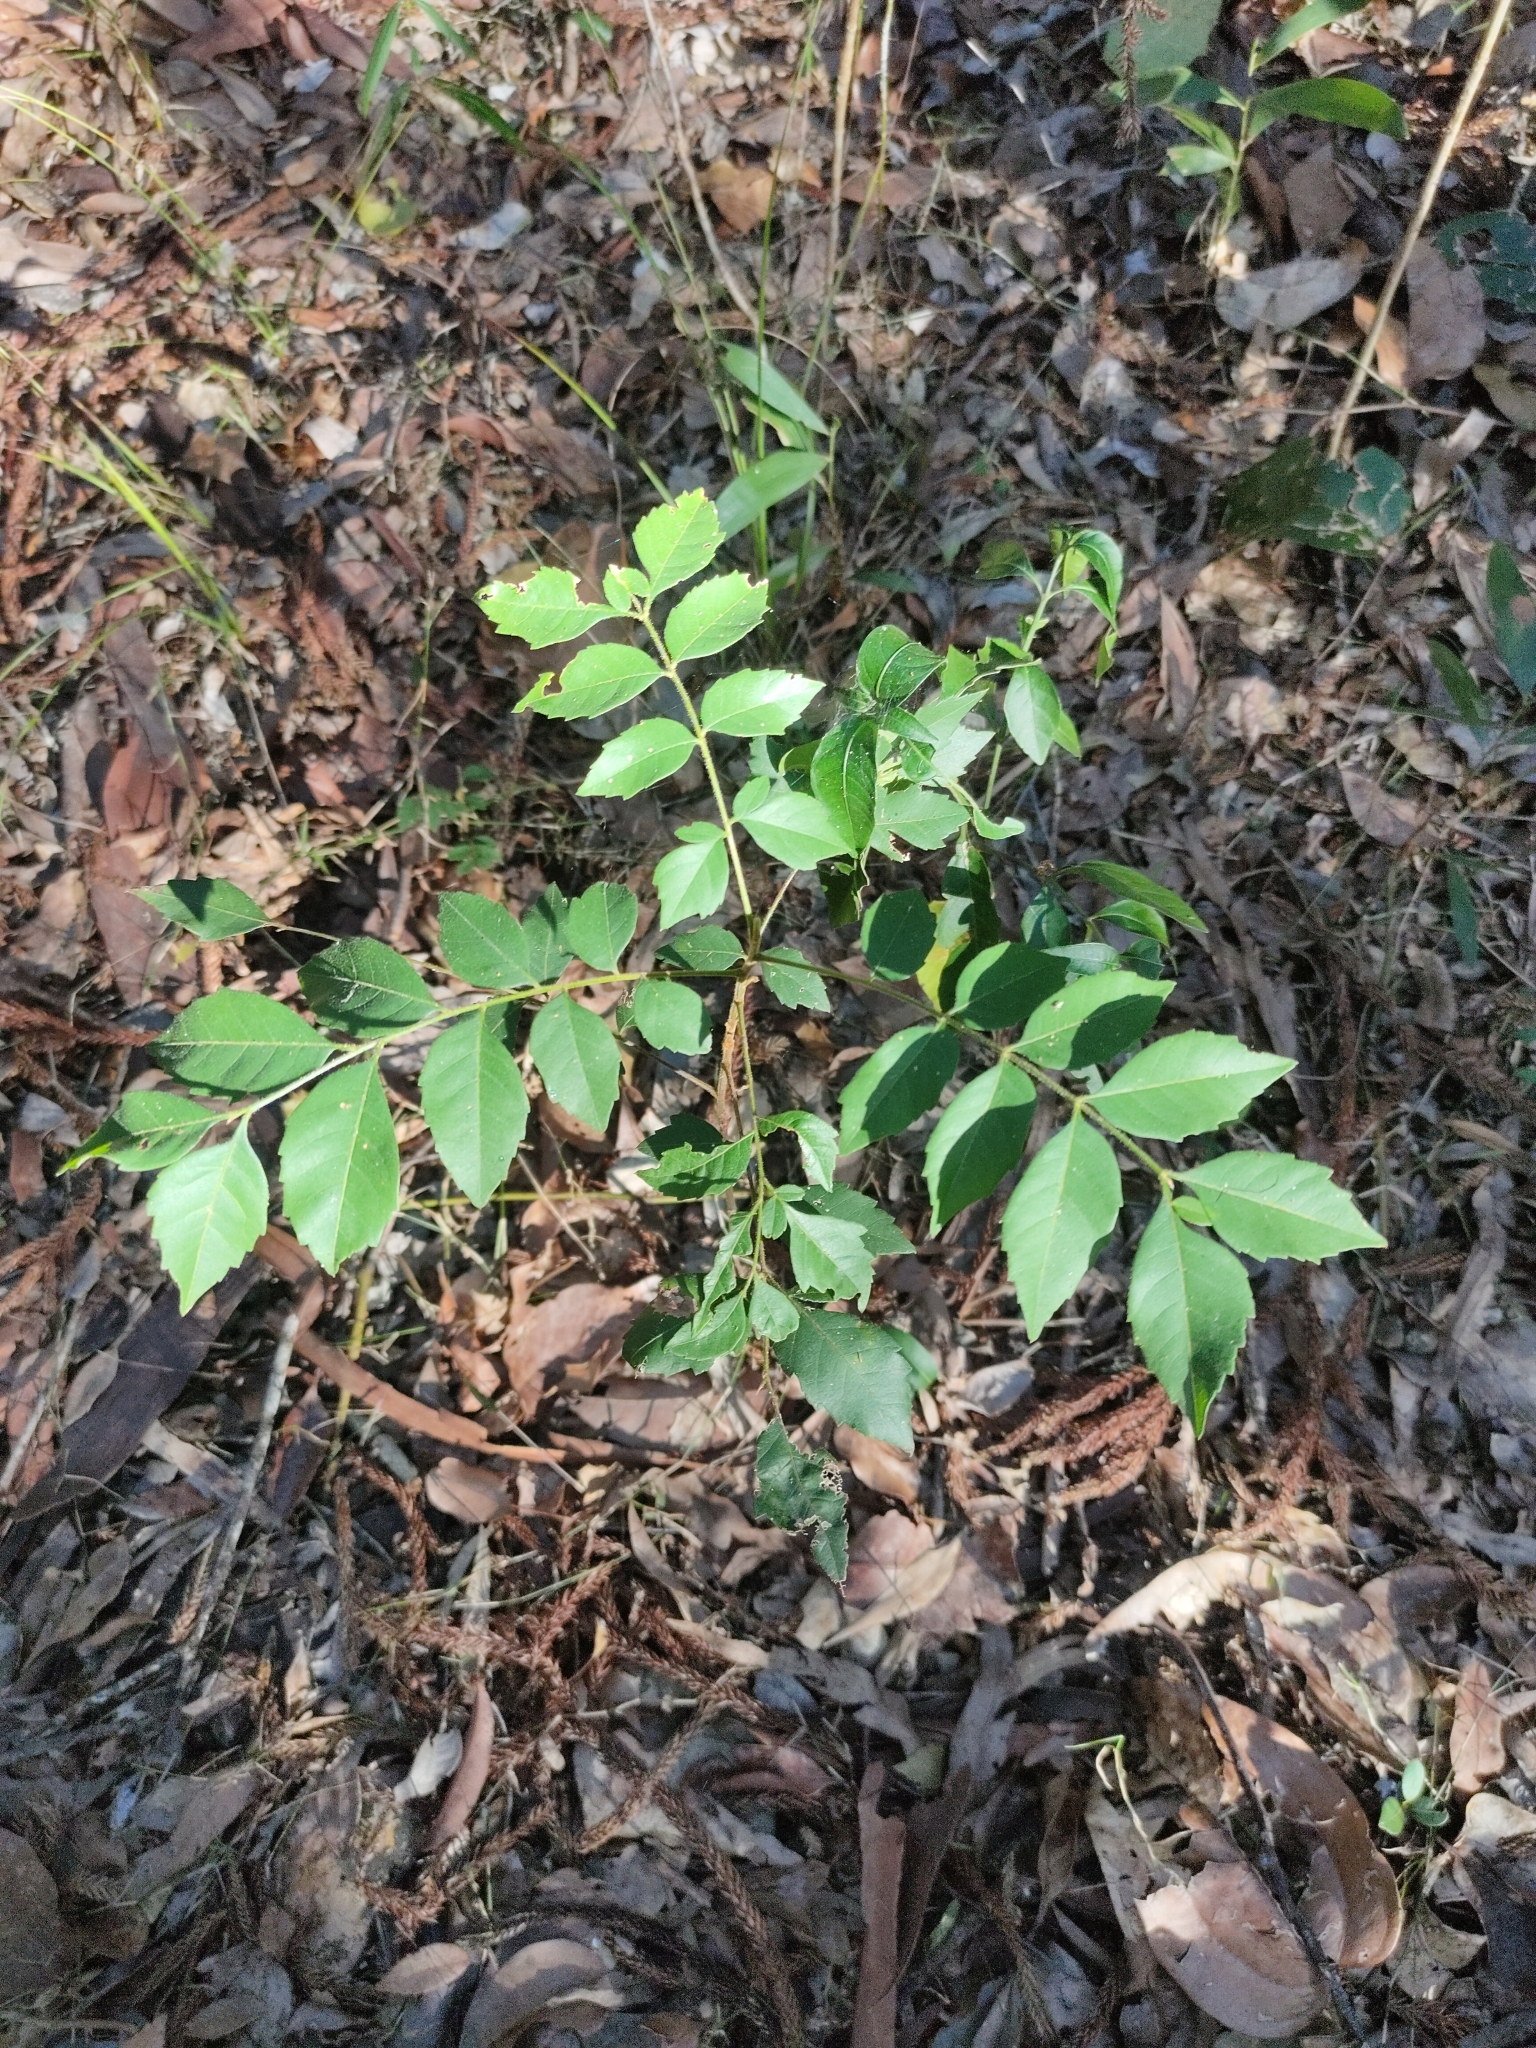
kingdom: Plantae
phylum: Tracheophyta
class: Magnoliopsida
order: Sapindales
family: Sapindaceae
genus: Jagera
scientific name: Jagera pseudorhus
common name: Fern-leaf-tamarind
